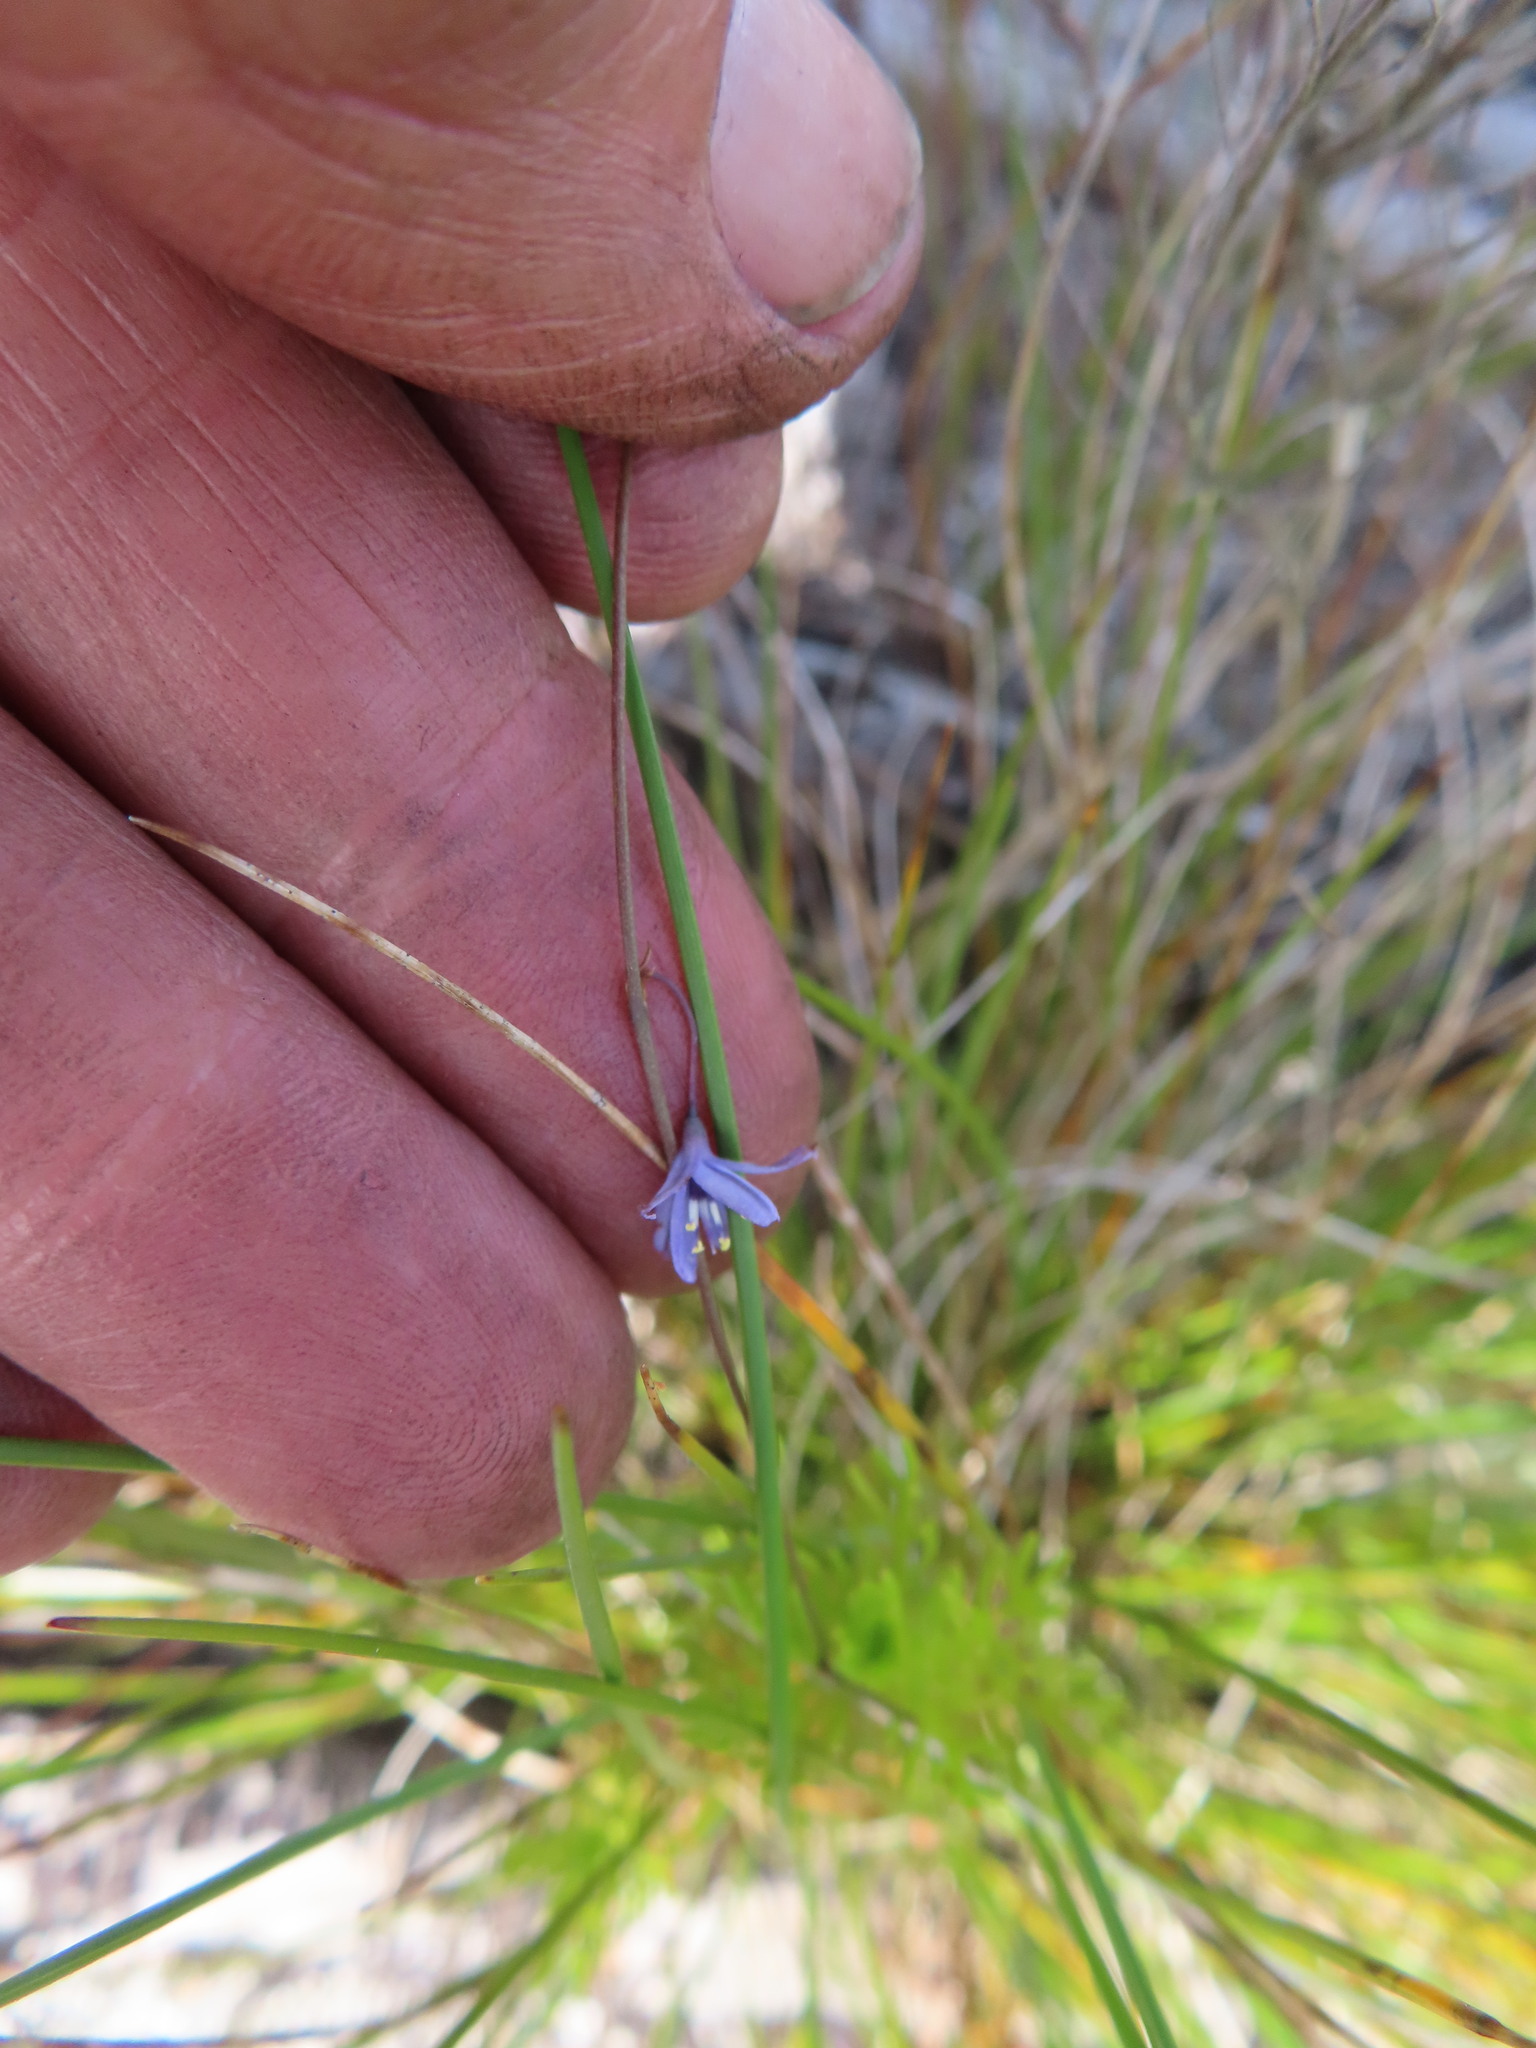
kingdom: Plantae
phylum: Tracheophyta
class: Liliopsida
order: Asparagales
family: Asphodelaceae
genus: Caesia
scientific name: Caesia contorta
